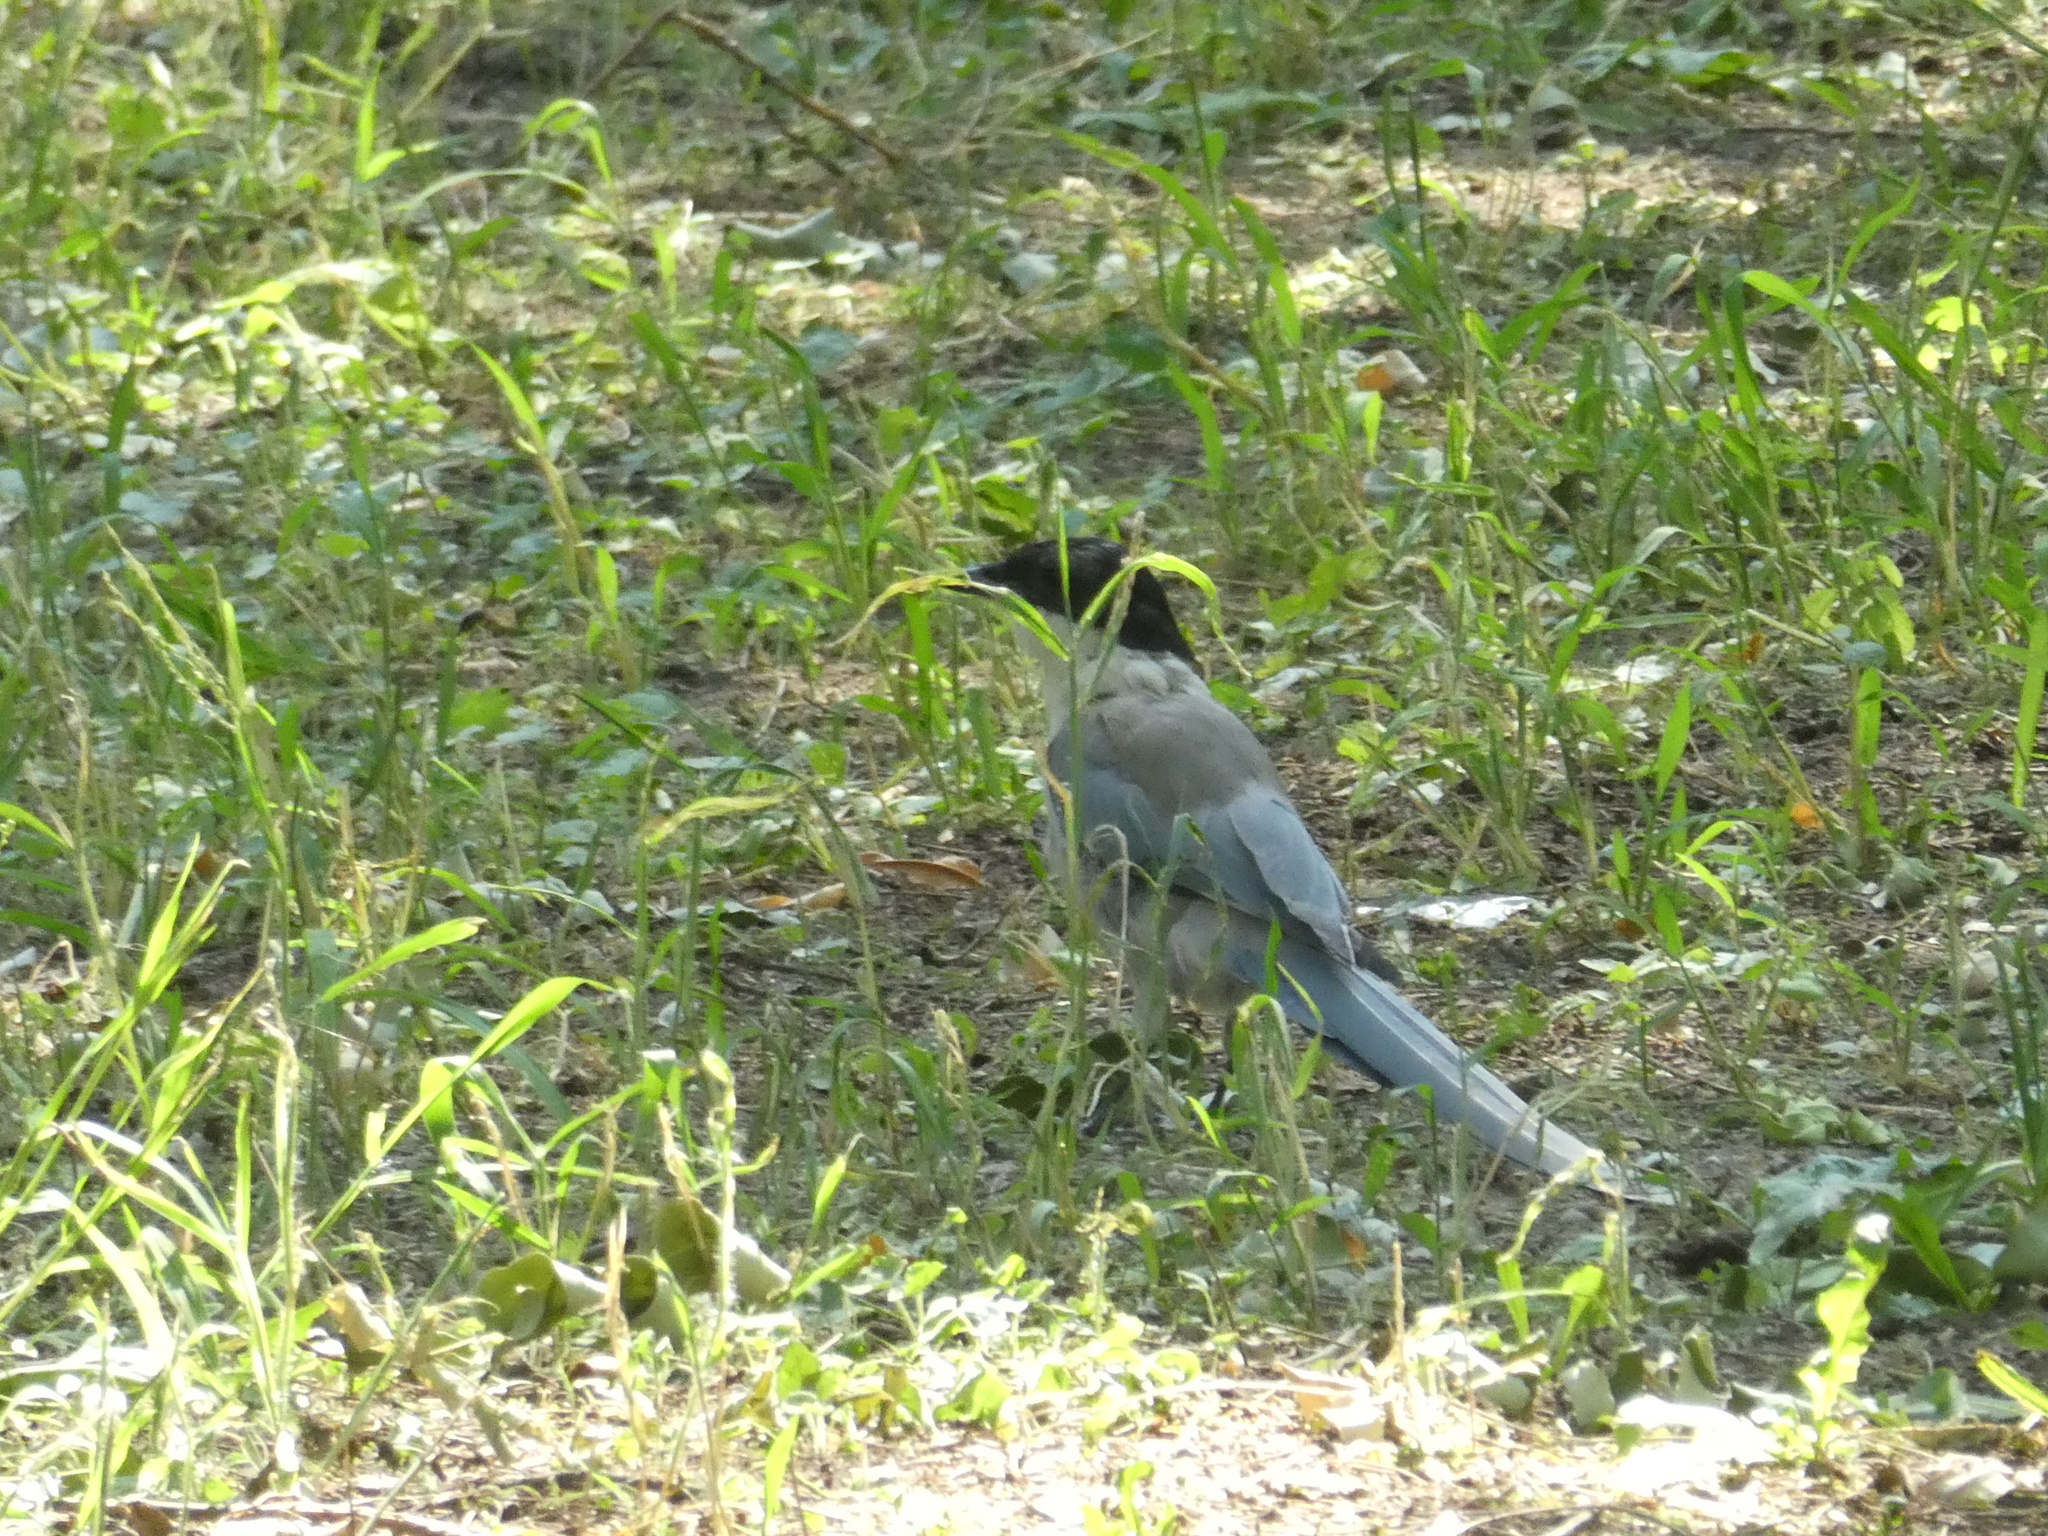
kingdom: Animalia
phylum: Chordata
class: Aves
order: Passeriformes
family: Corvidae
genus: Cyanopica
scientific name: Cyanopica cyanus
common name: Azure-winged magpie
